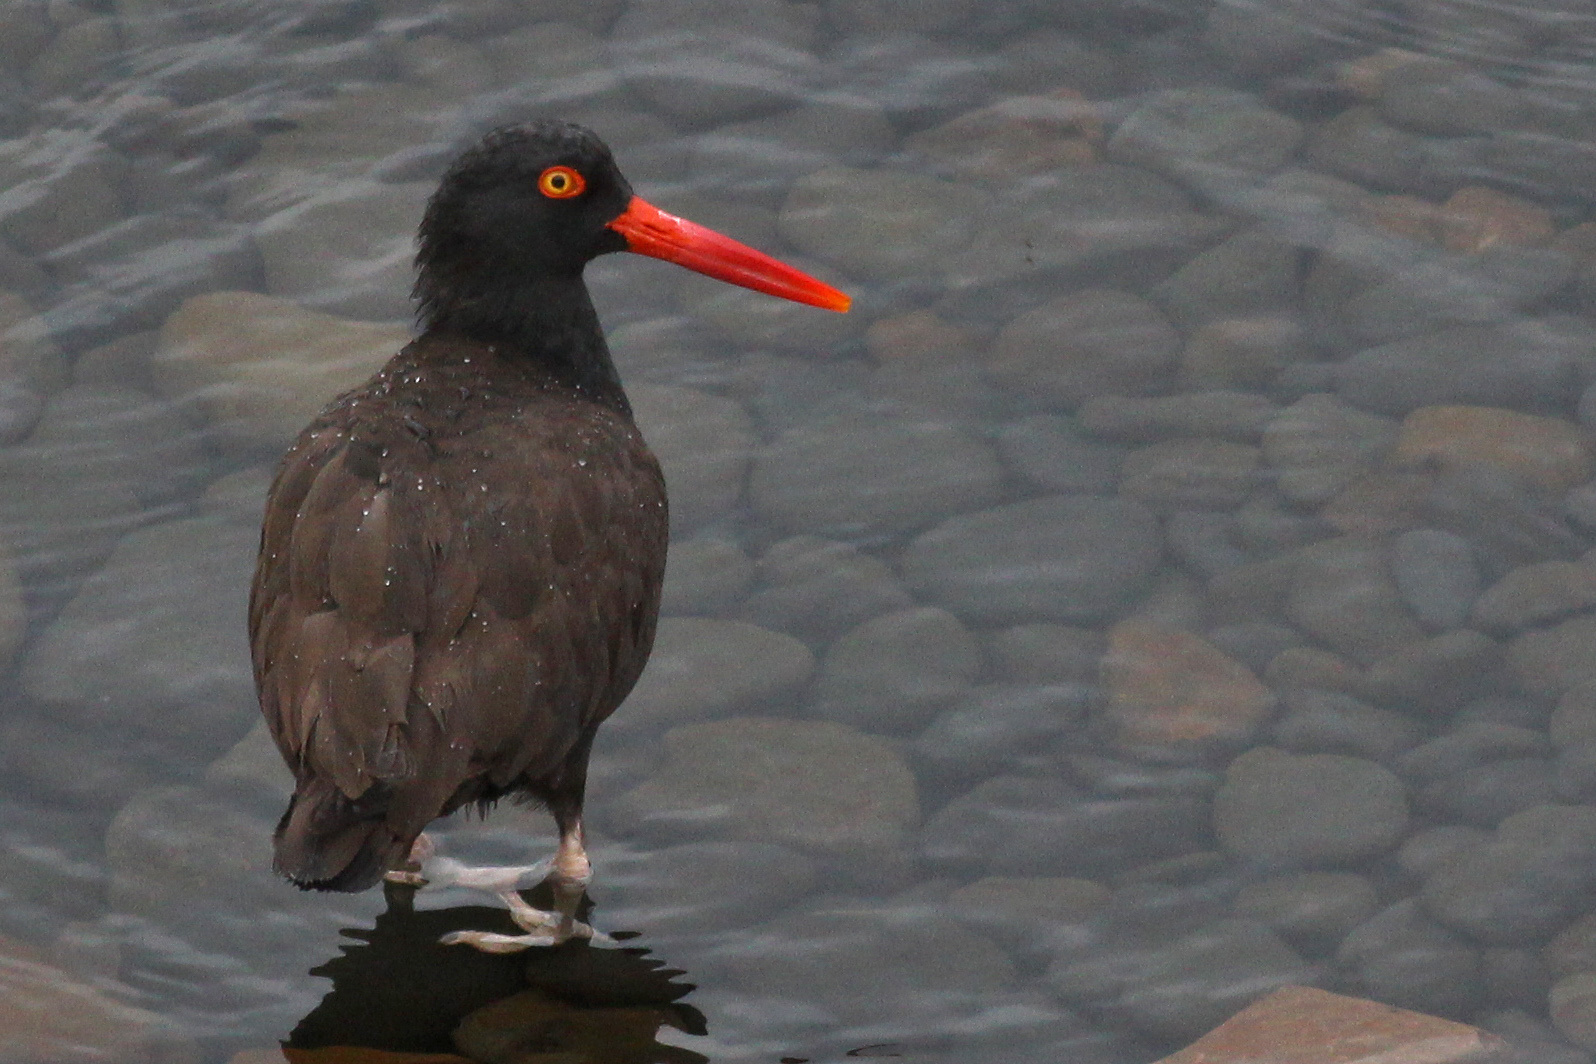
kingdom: Animalia
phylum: Chordata
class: Aves
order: Charadriiformes
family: Haematopodidae
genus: Haematopus
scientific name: Haematopus bachmani
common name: Black oystercatcher
